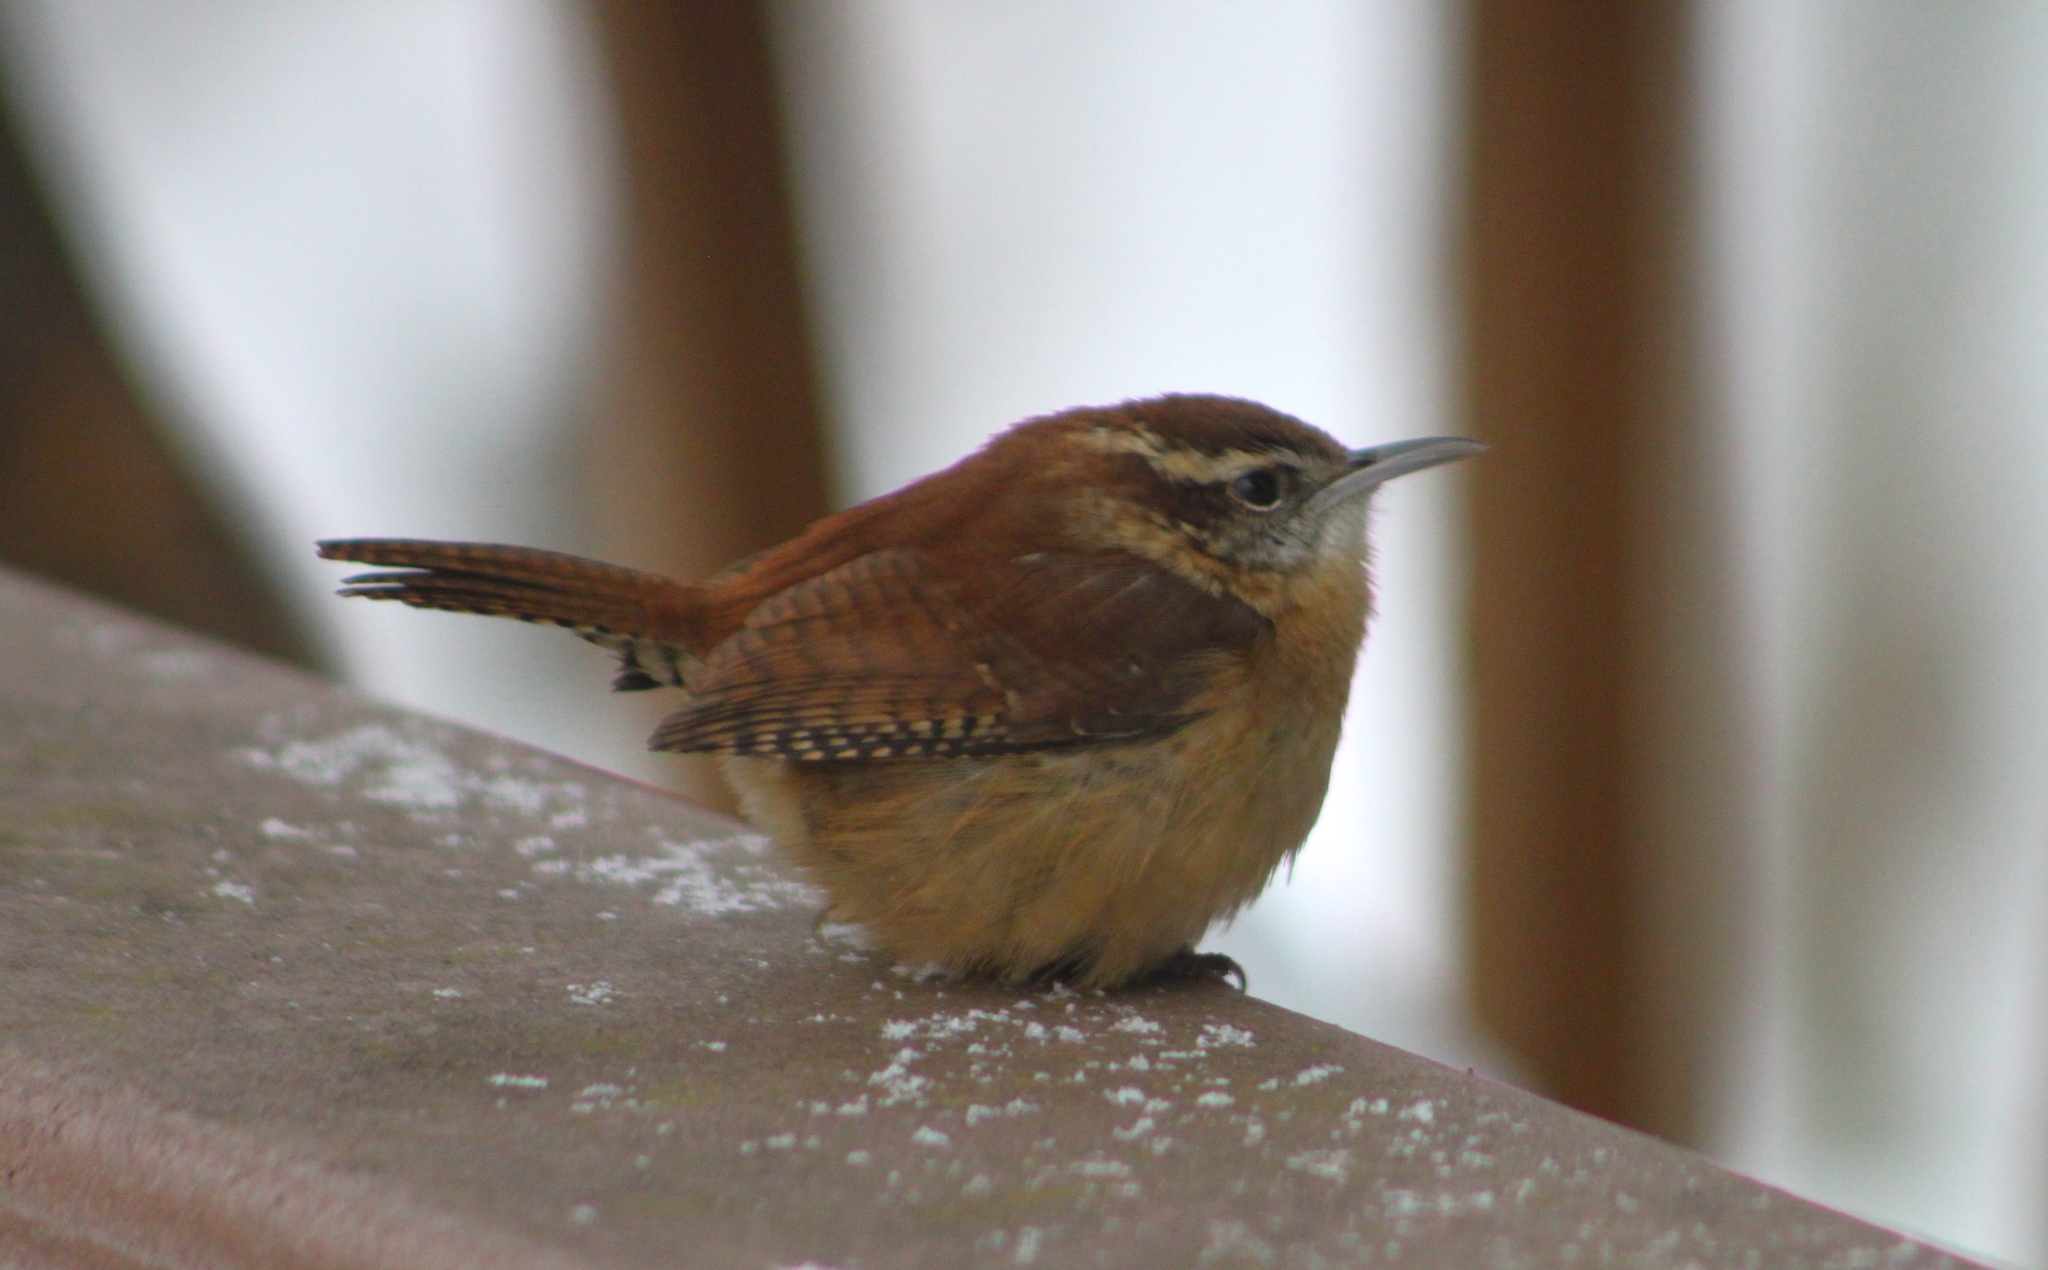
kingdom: Animalia
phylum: Chordata
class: Aves
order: Passeriformes
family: Troglodytidae
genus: Thryothorus
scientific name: Thryothorus ludovicianus
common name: Carolina wren
